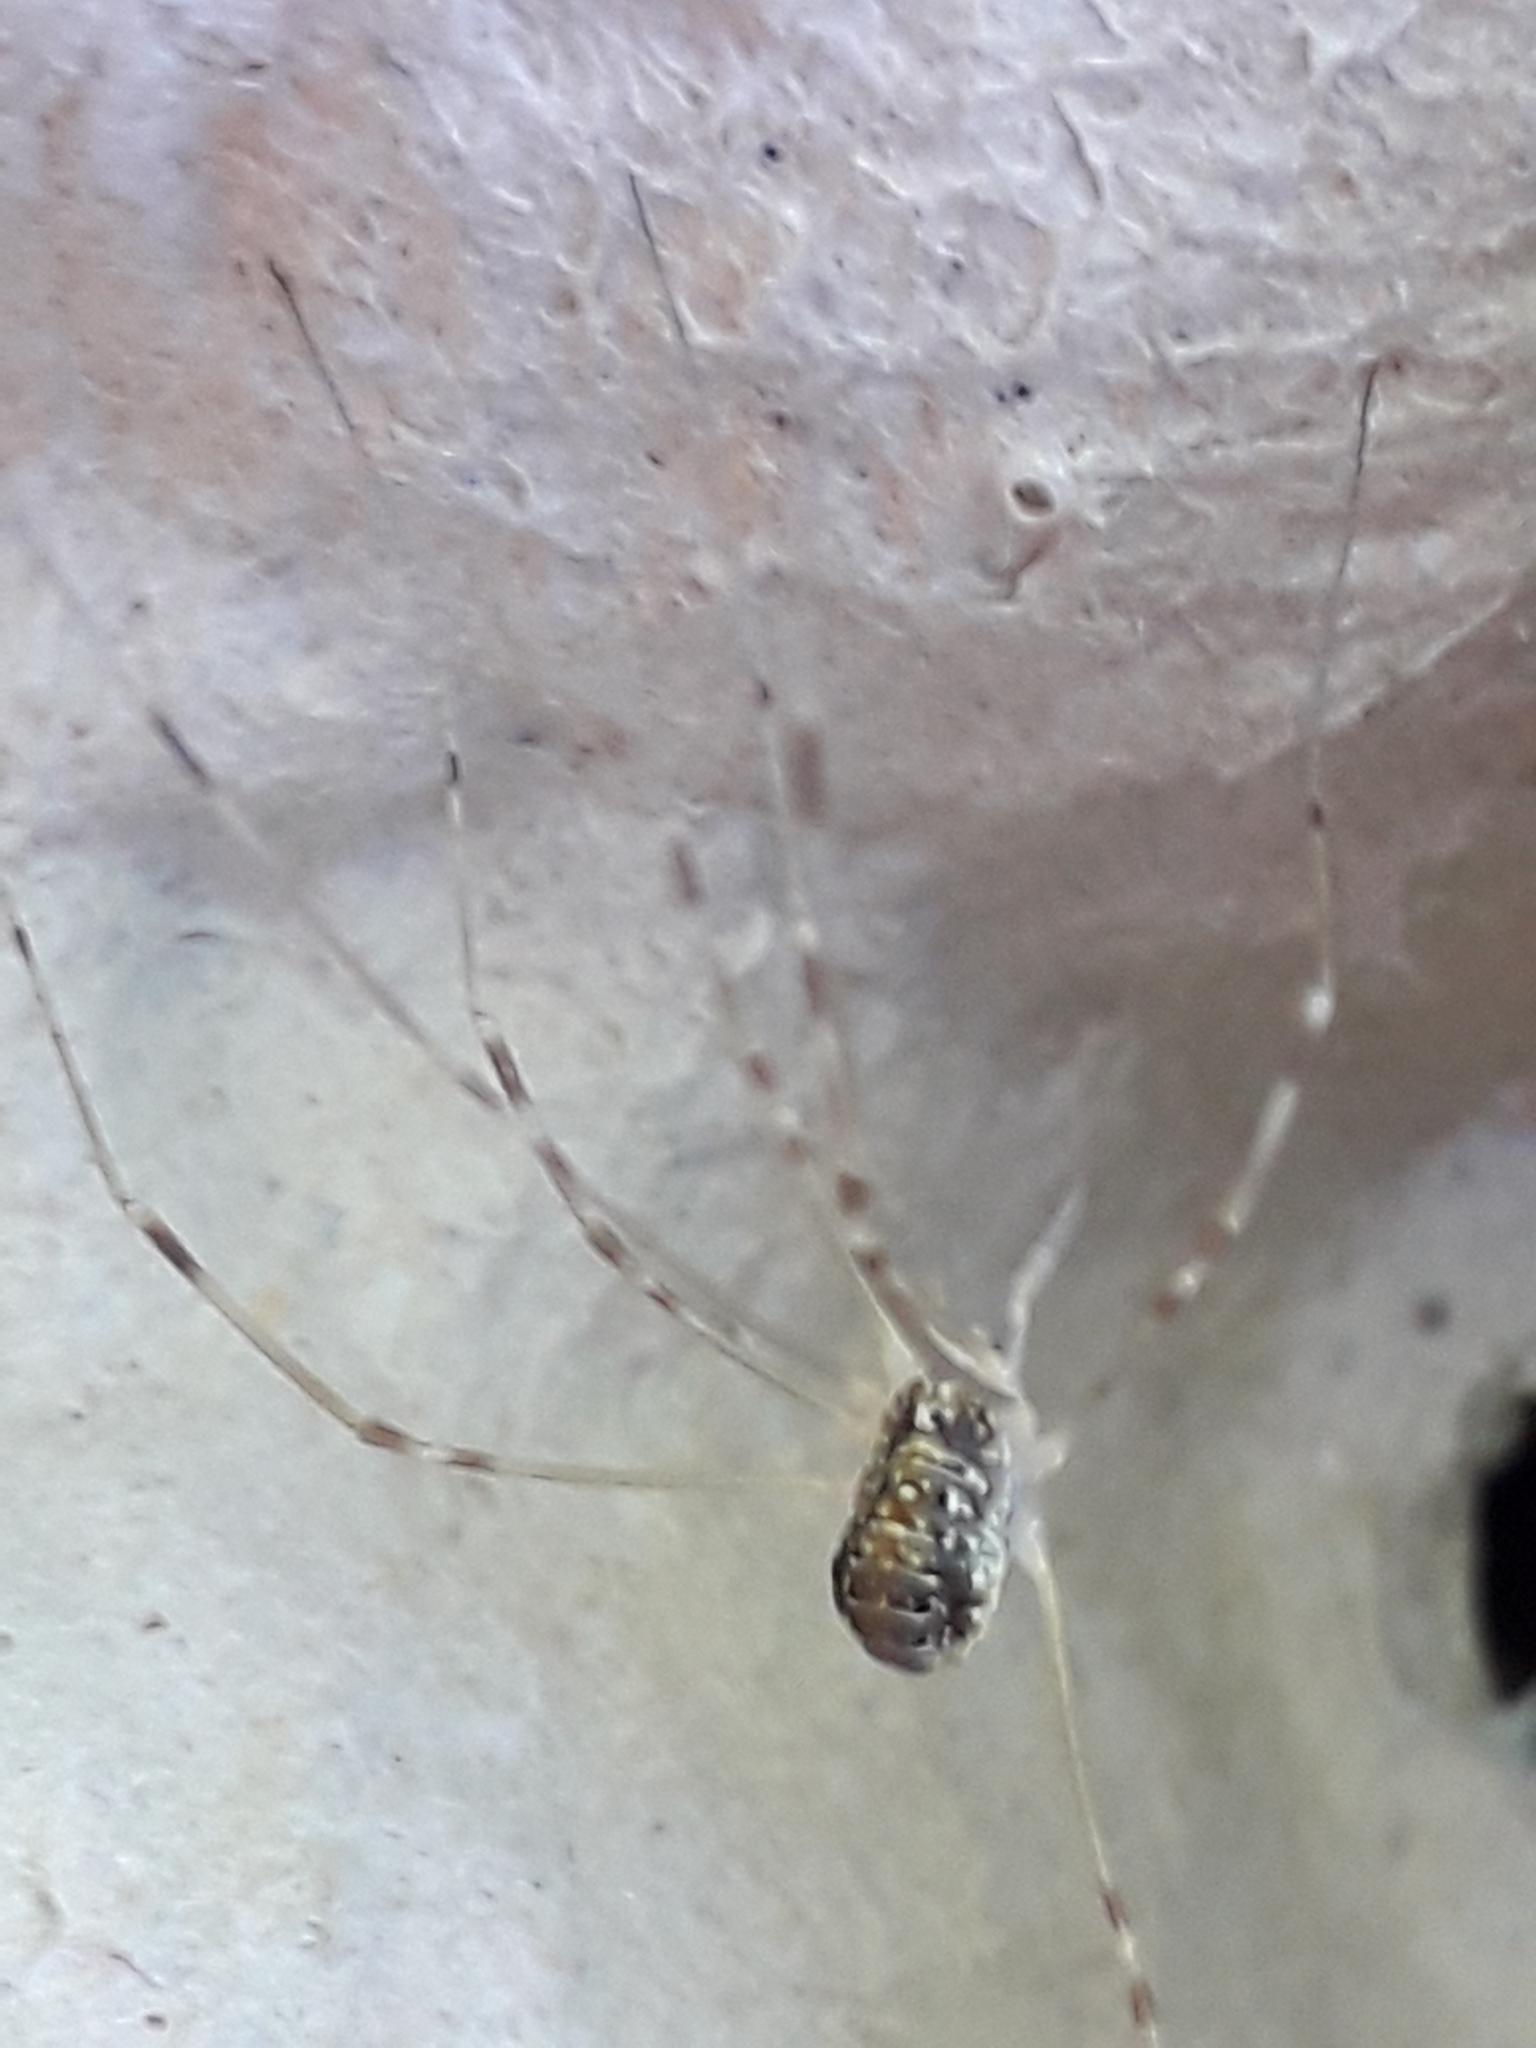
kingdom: Animalia
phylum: Arthropoda
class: Arachnida
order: Opiliones
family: Phalangiidae
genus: Opilio
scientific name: Opilio canestrinii
